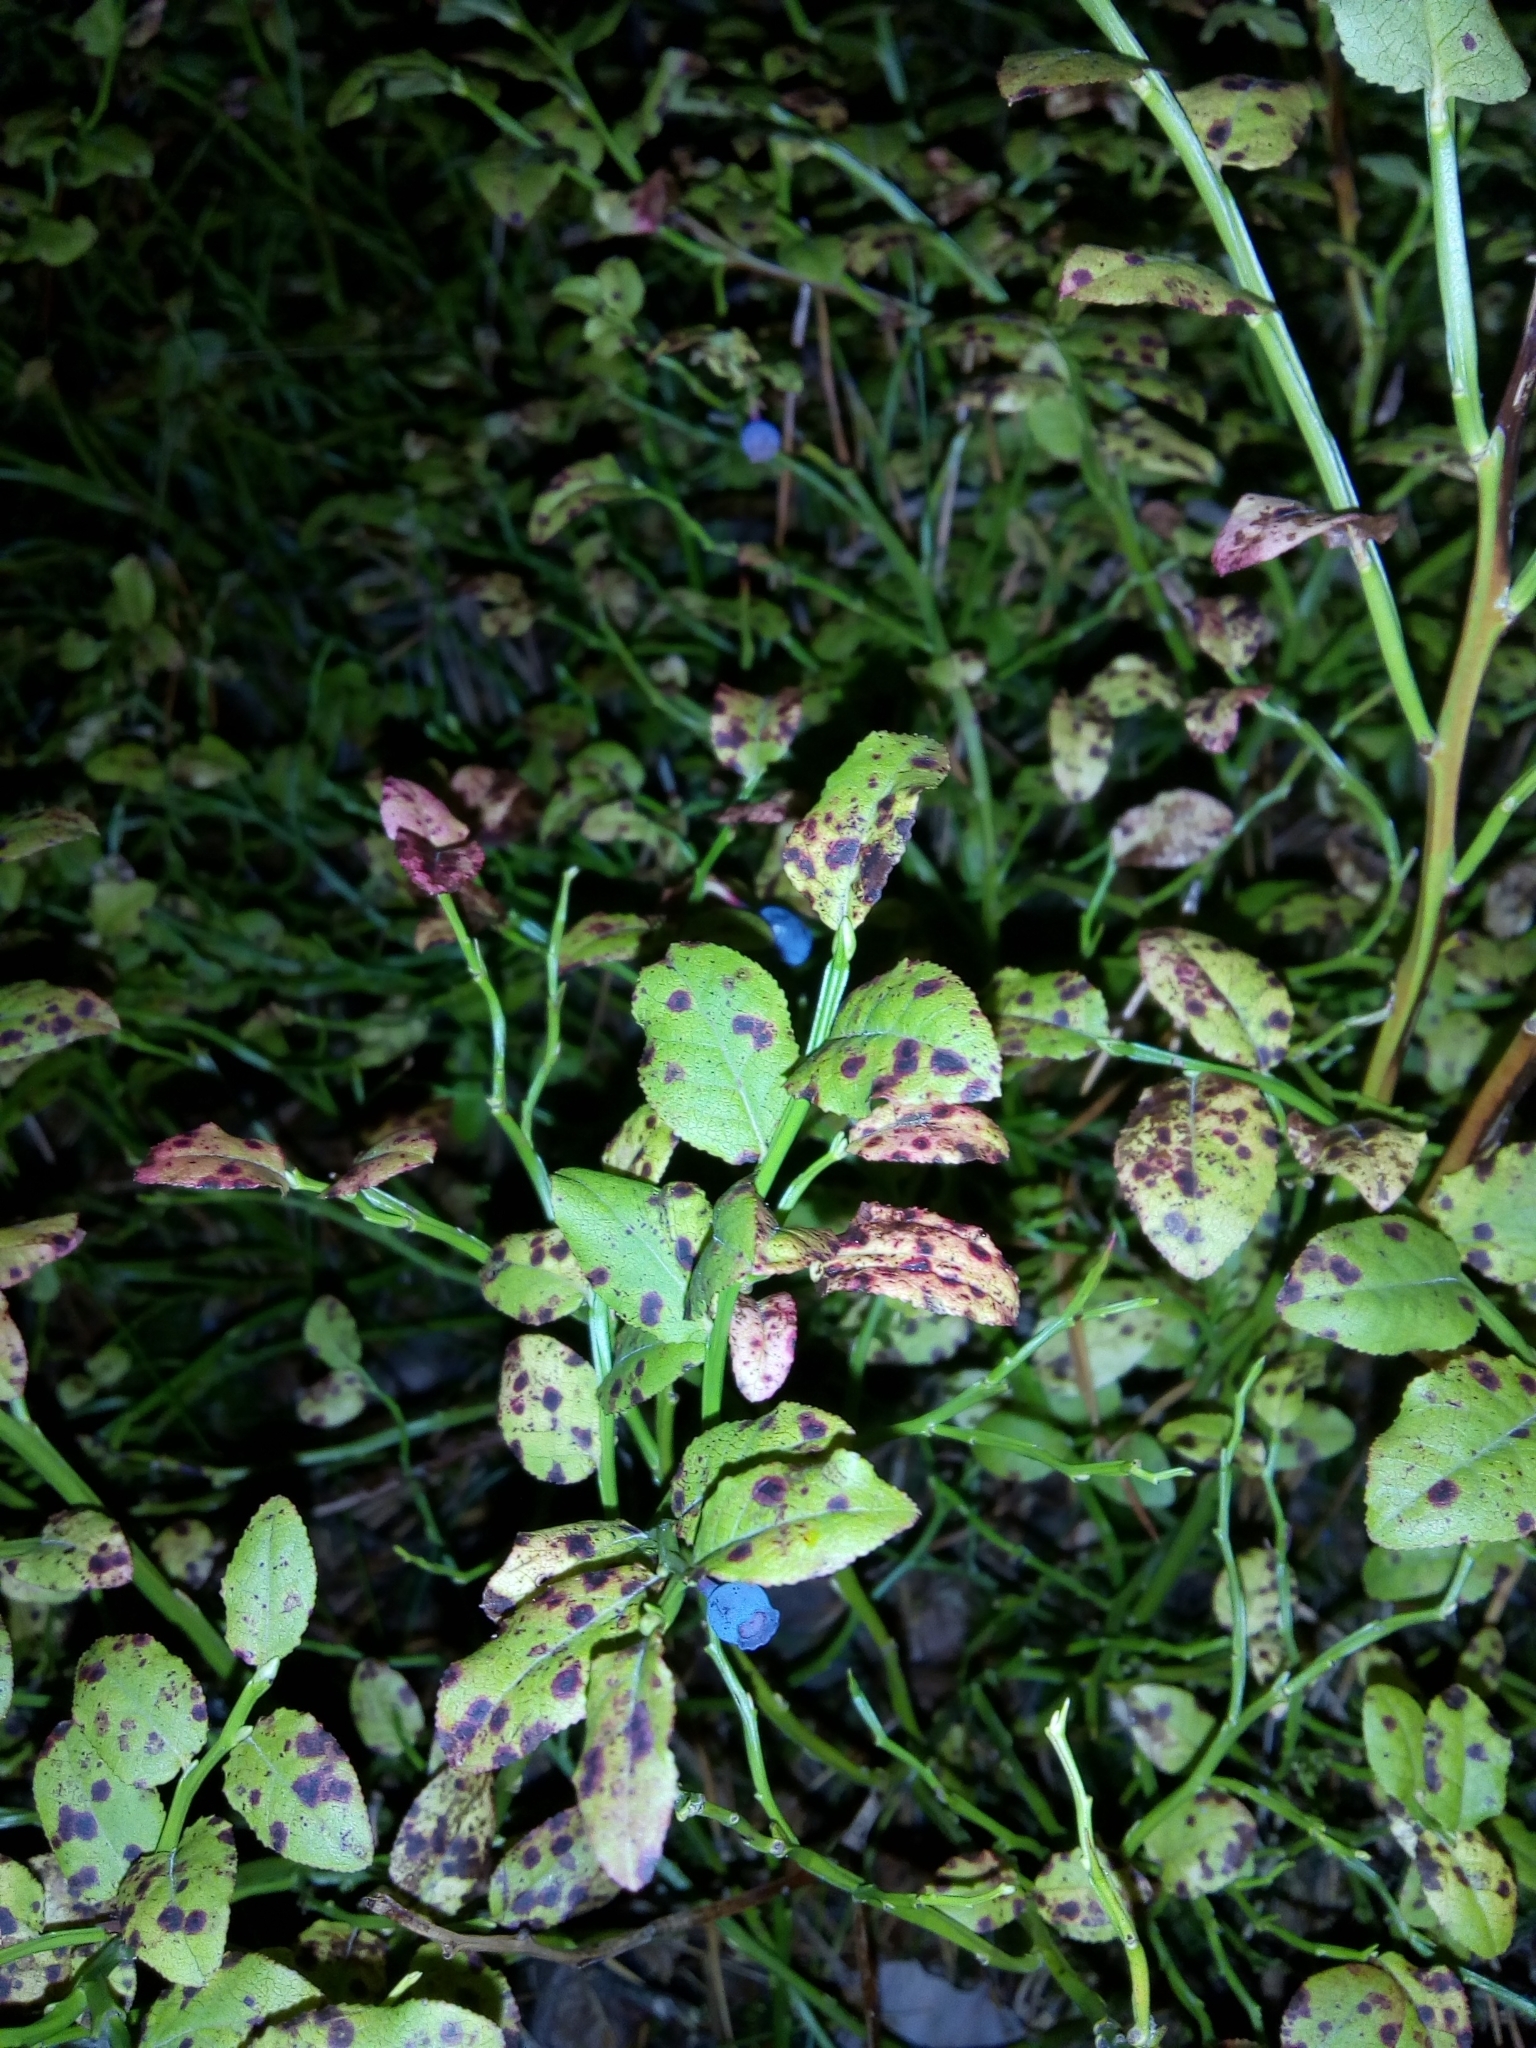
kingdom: Plantae
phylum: Tracheophyta
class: Magnoliopsida
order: Ericales
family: Ericaceae
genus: Vaccinium
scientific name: Vaccinium myrtillus
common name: Bilberry
